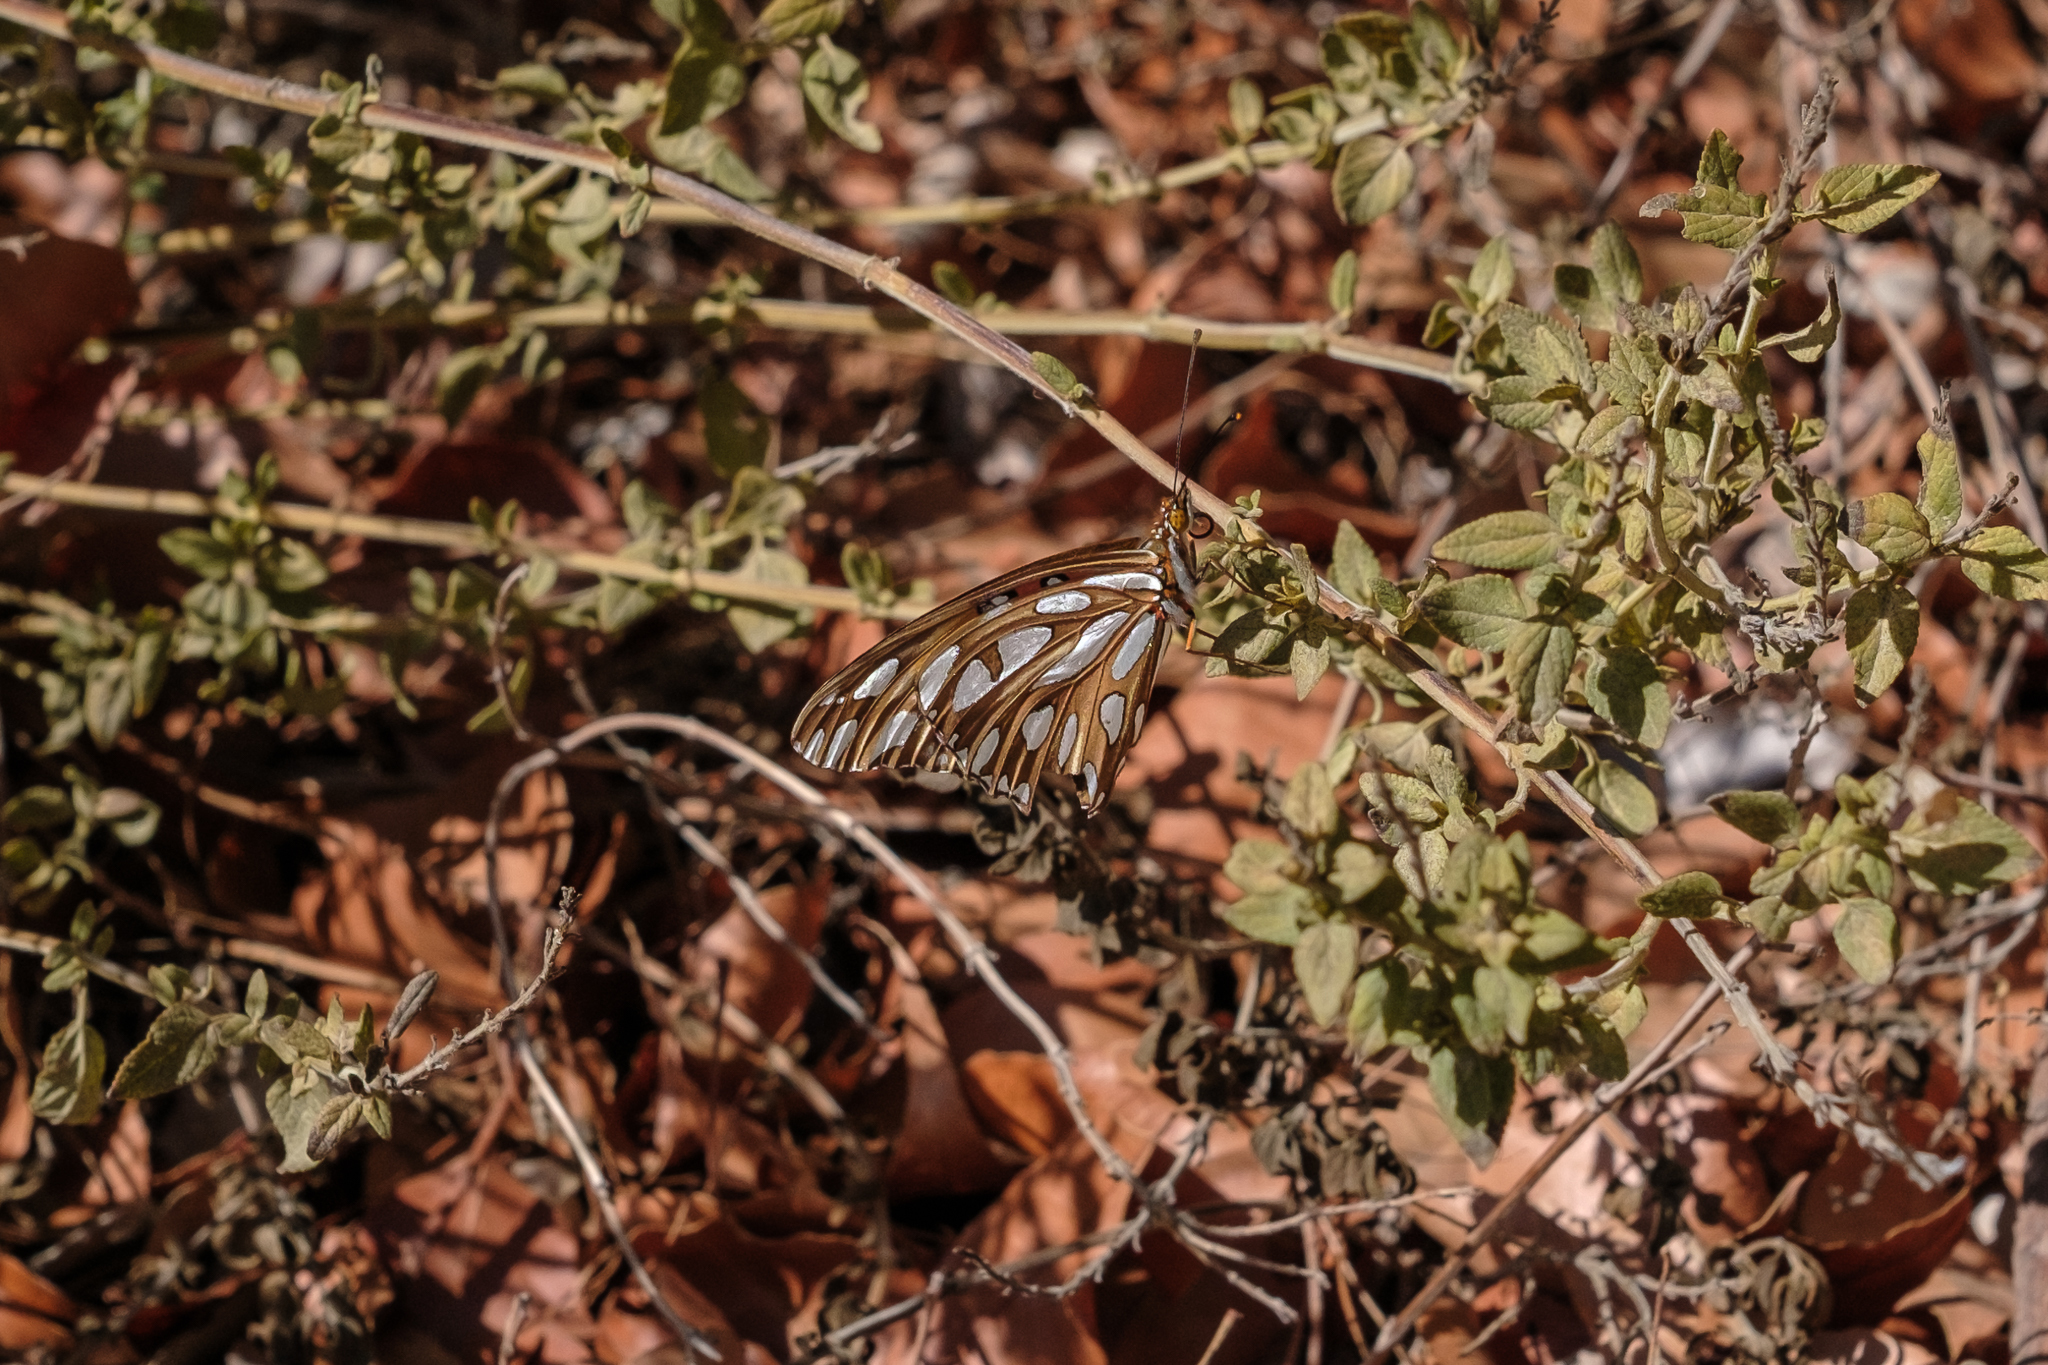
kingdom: Animalia
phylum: Arthropoda
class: Insecta
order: Lepidoptera
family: Nymphalidae
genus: Dione
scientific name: Dione vanillae
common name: Gulf fritillary
